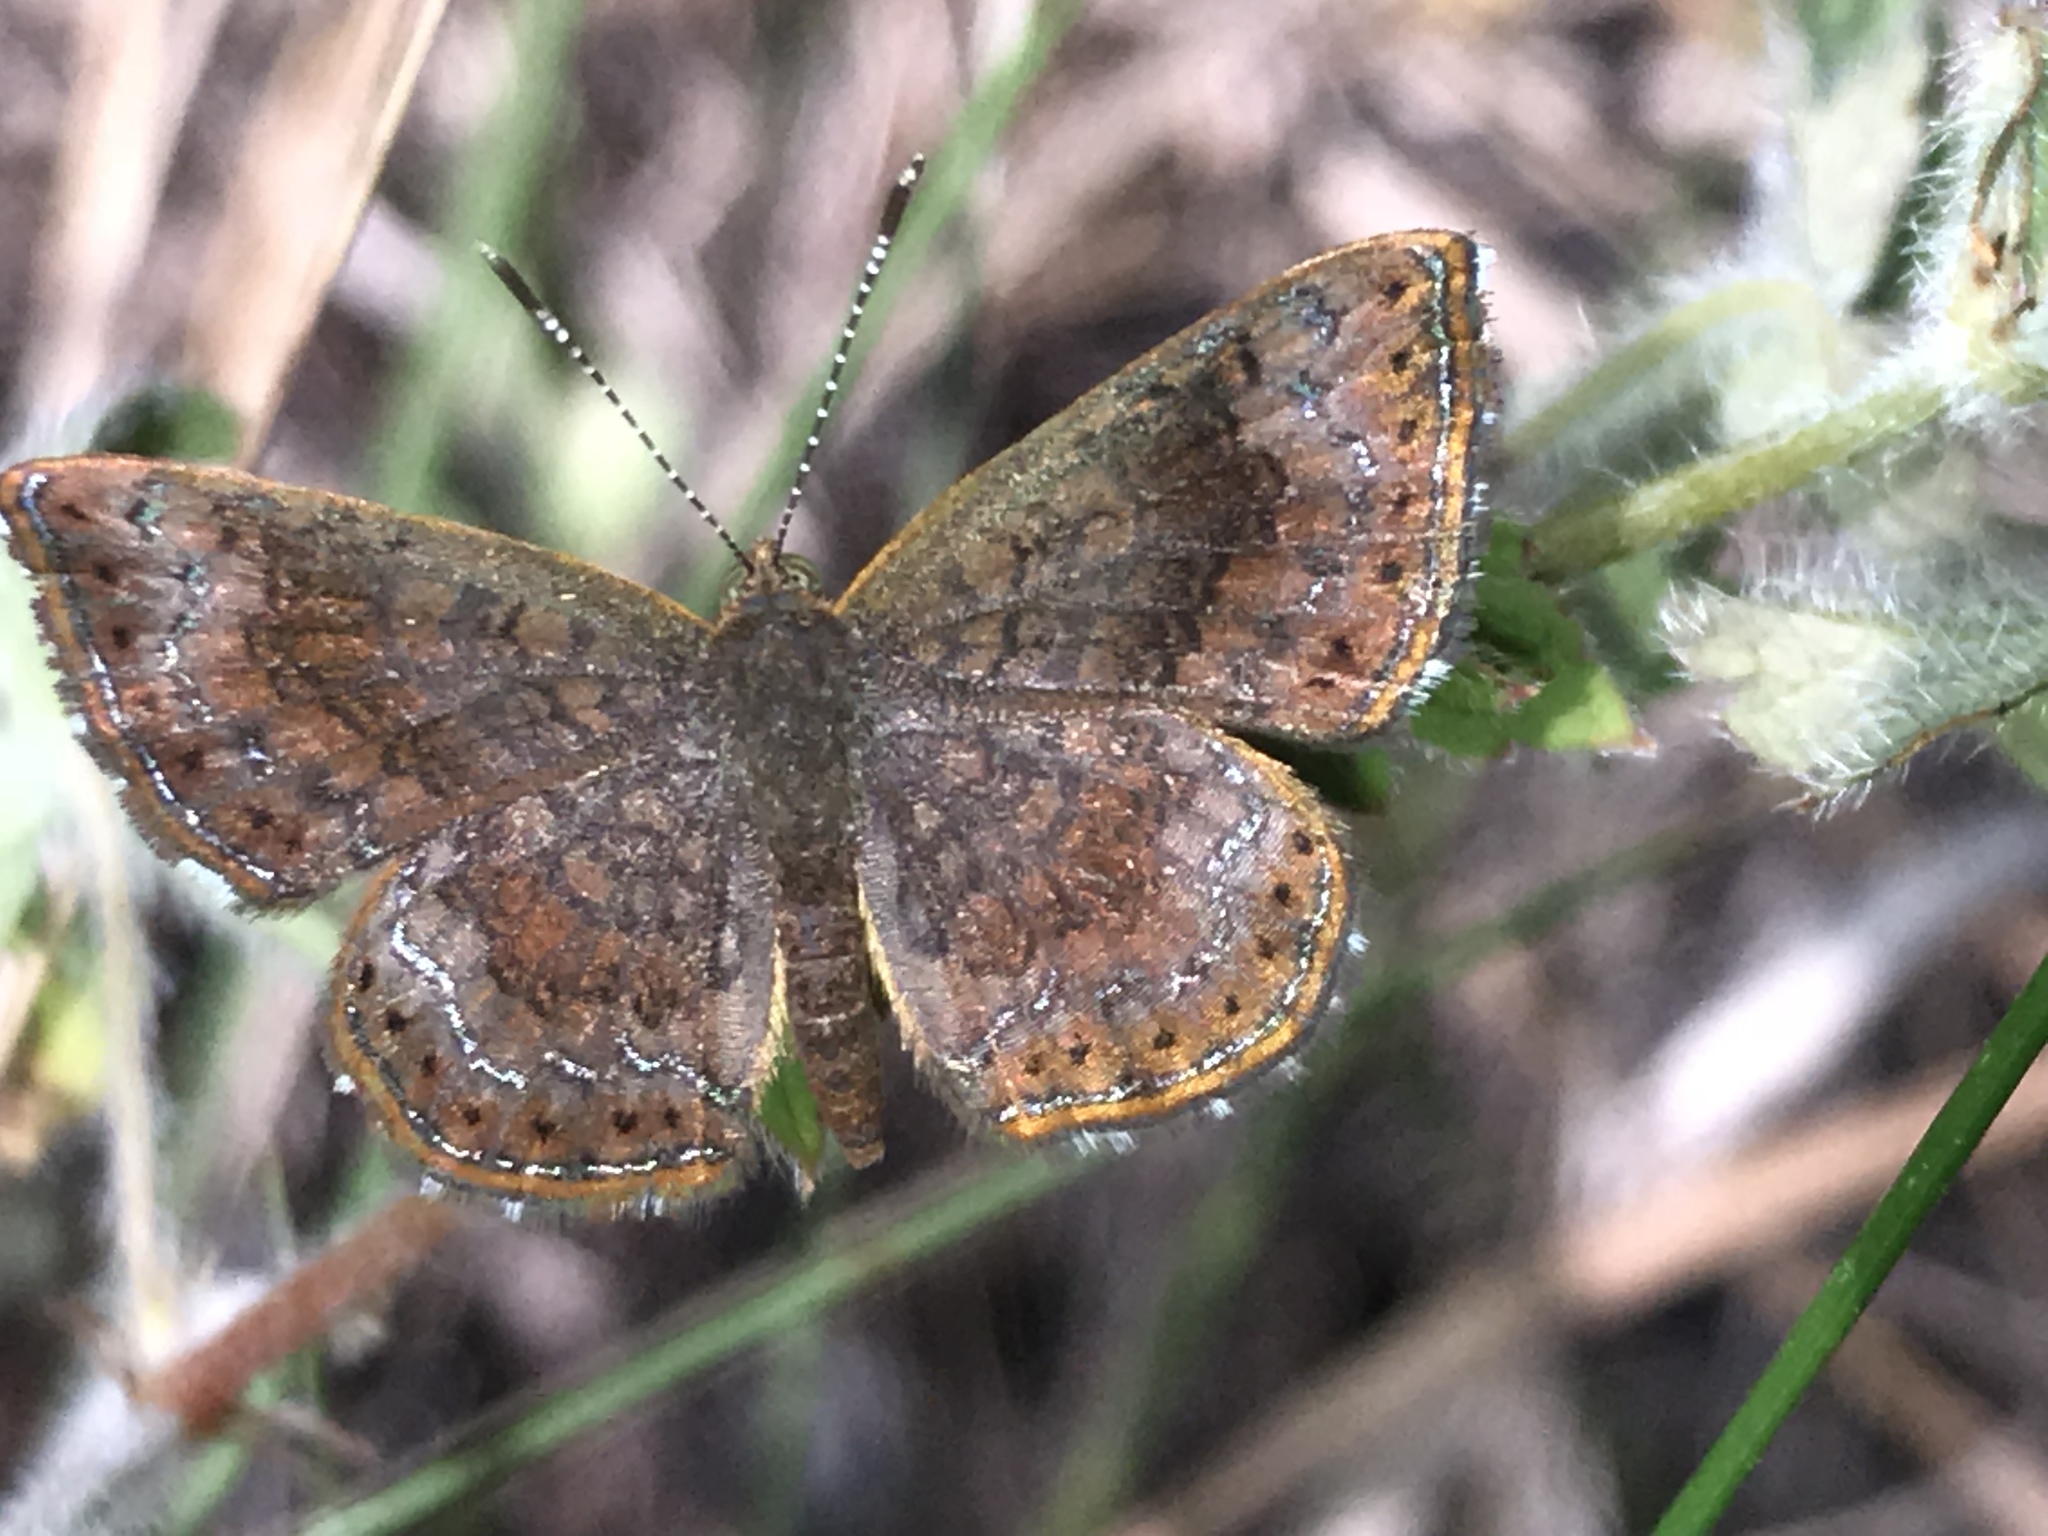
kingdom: Animalia
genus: Calephelis
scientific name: Calephelis perditalis
